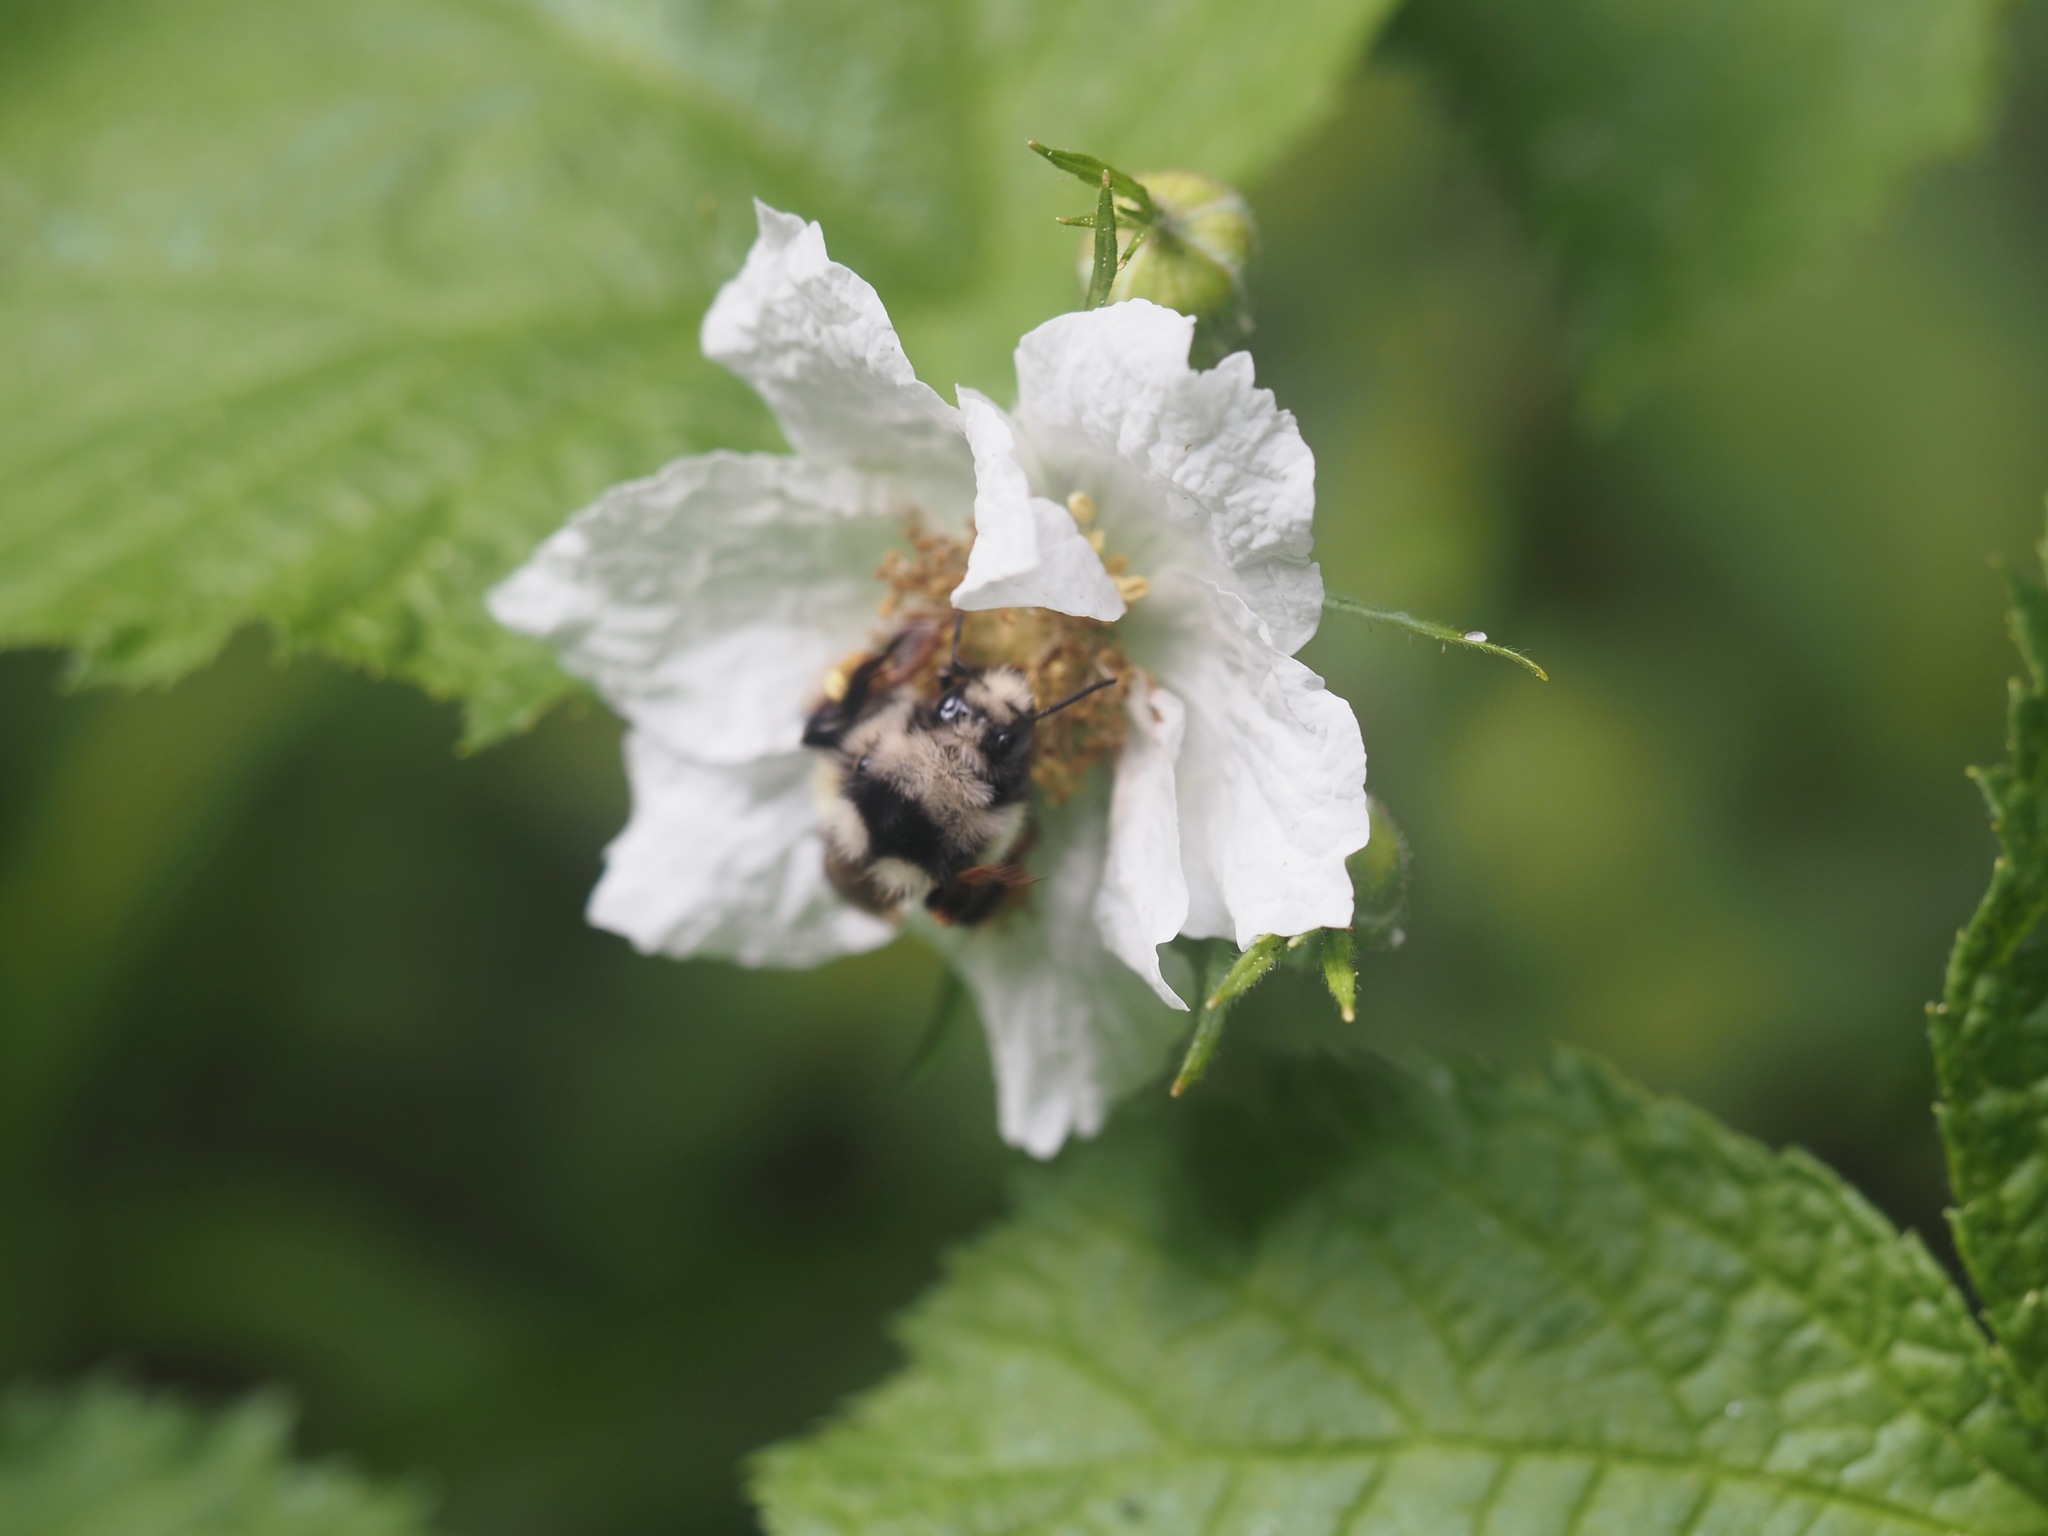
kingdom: Animalia
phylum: Arthropoda
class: Insecta
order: Hymenoptera
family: Apidae
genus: Bombus
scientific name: Bombus vancouverensis
